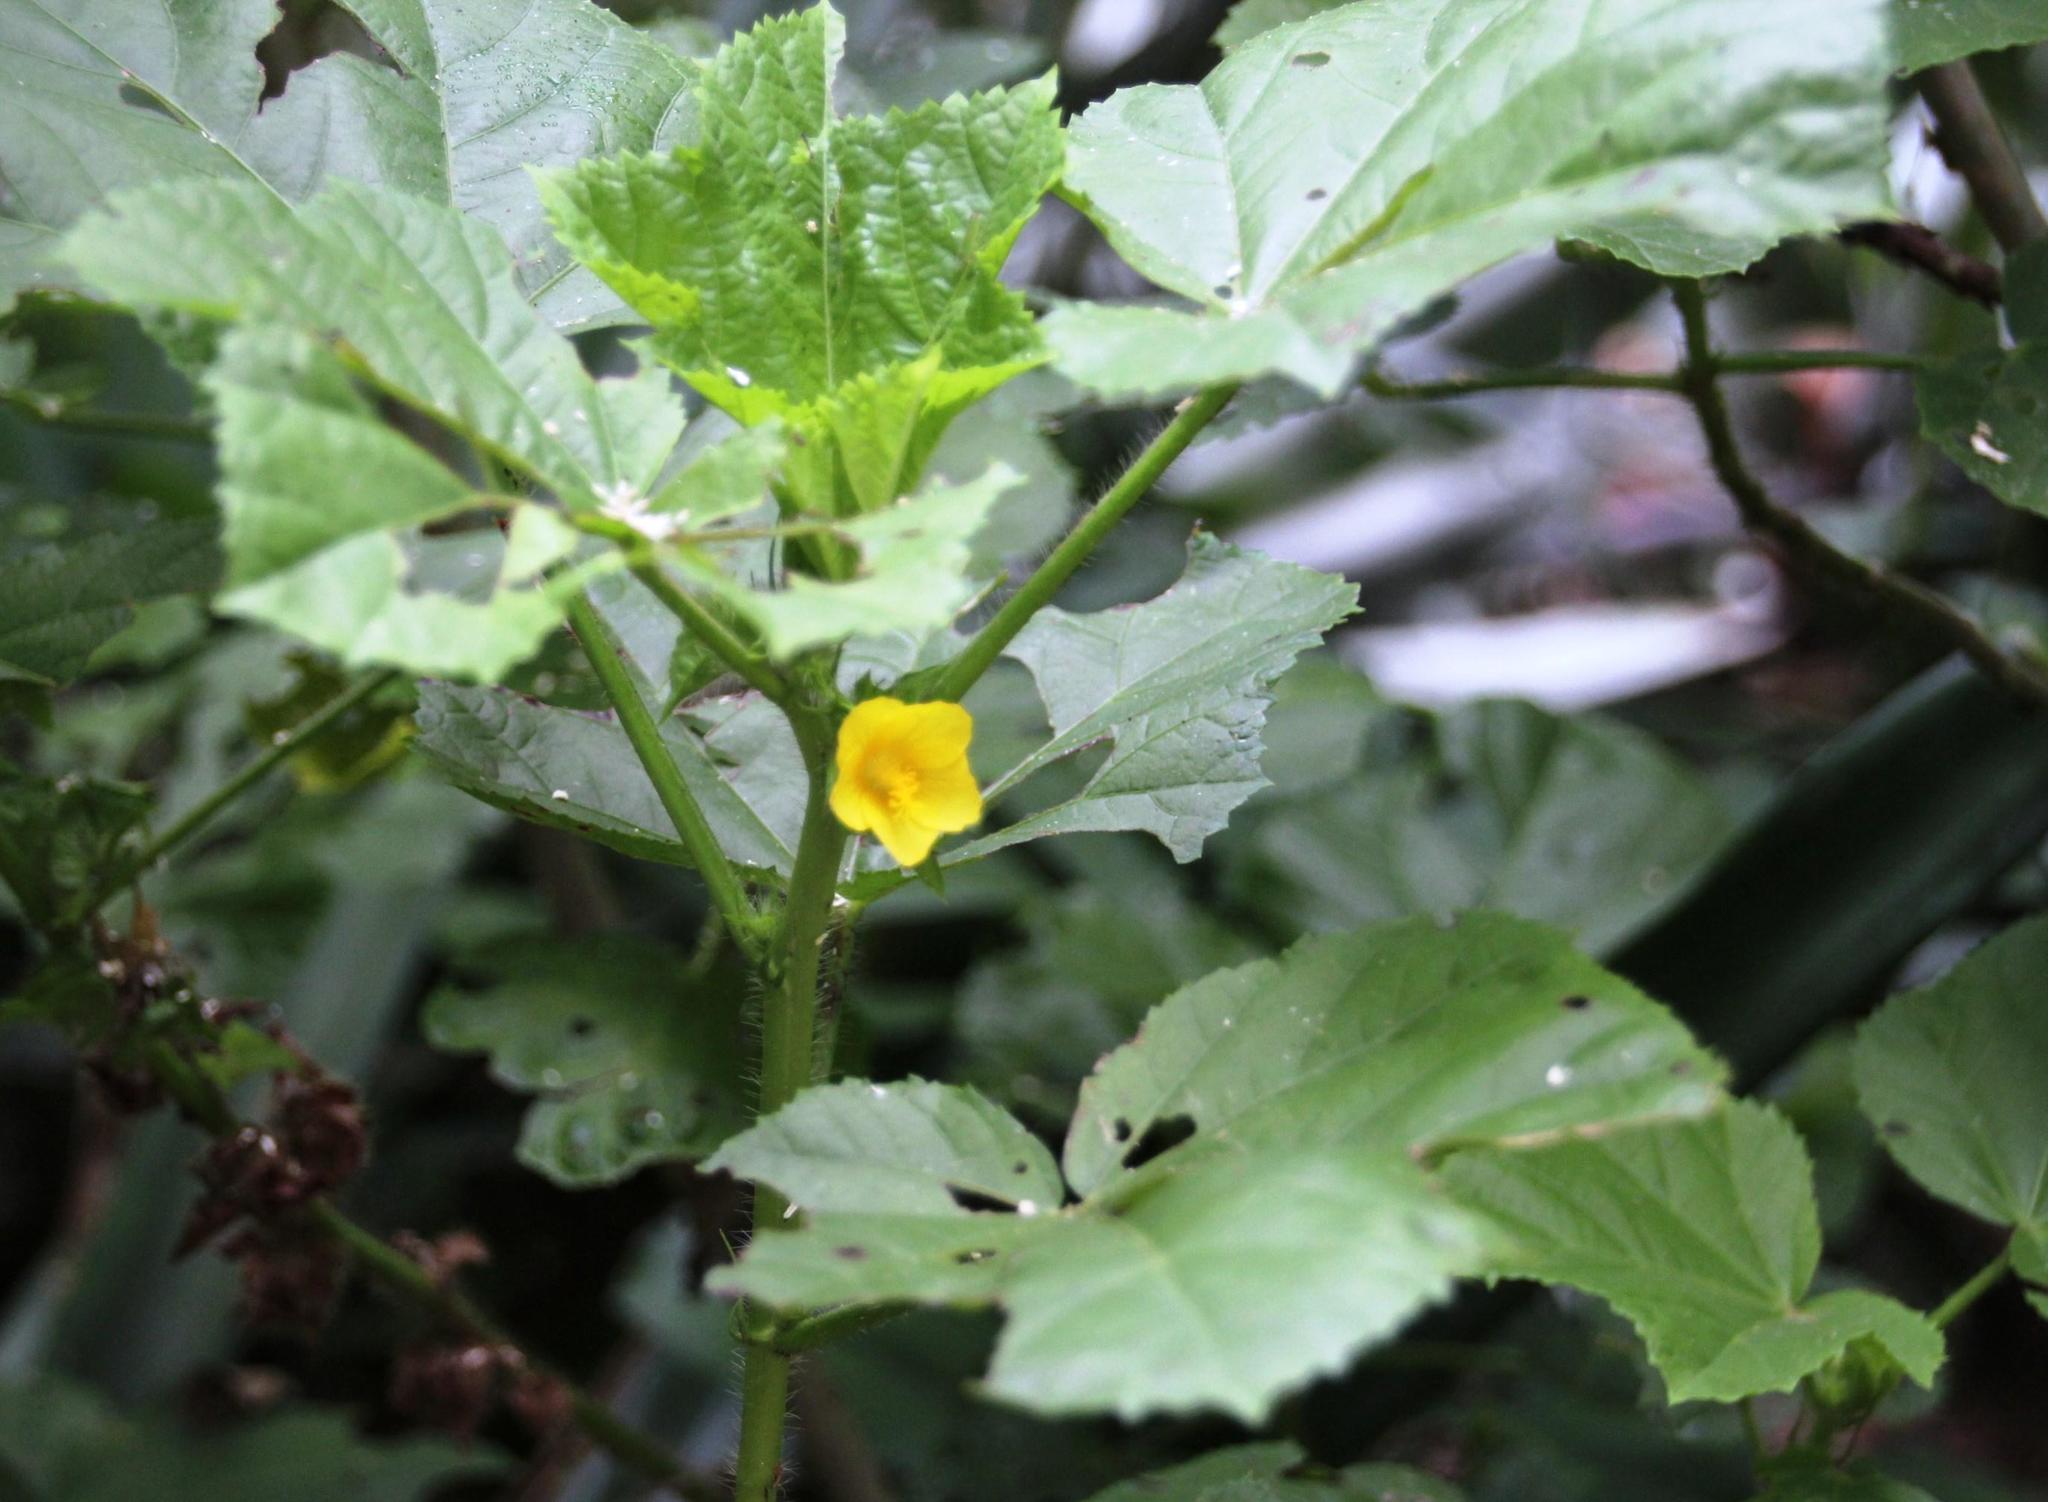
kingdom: Plantae
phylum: Tracheophyta
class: Magnoliopsida
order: Malvales
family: Malvaceae
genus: Malachra
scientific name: Malachra alceifolia
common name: Yellow leafbract
